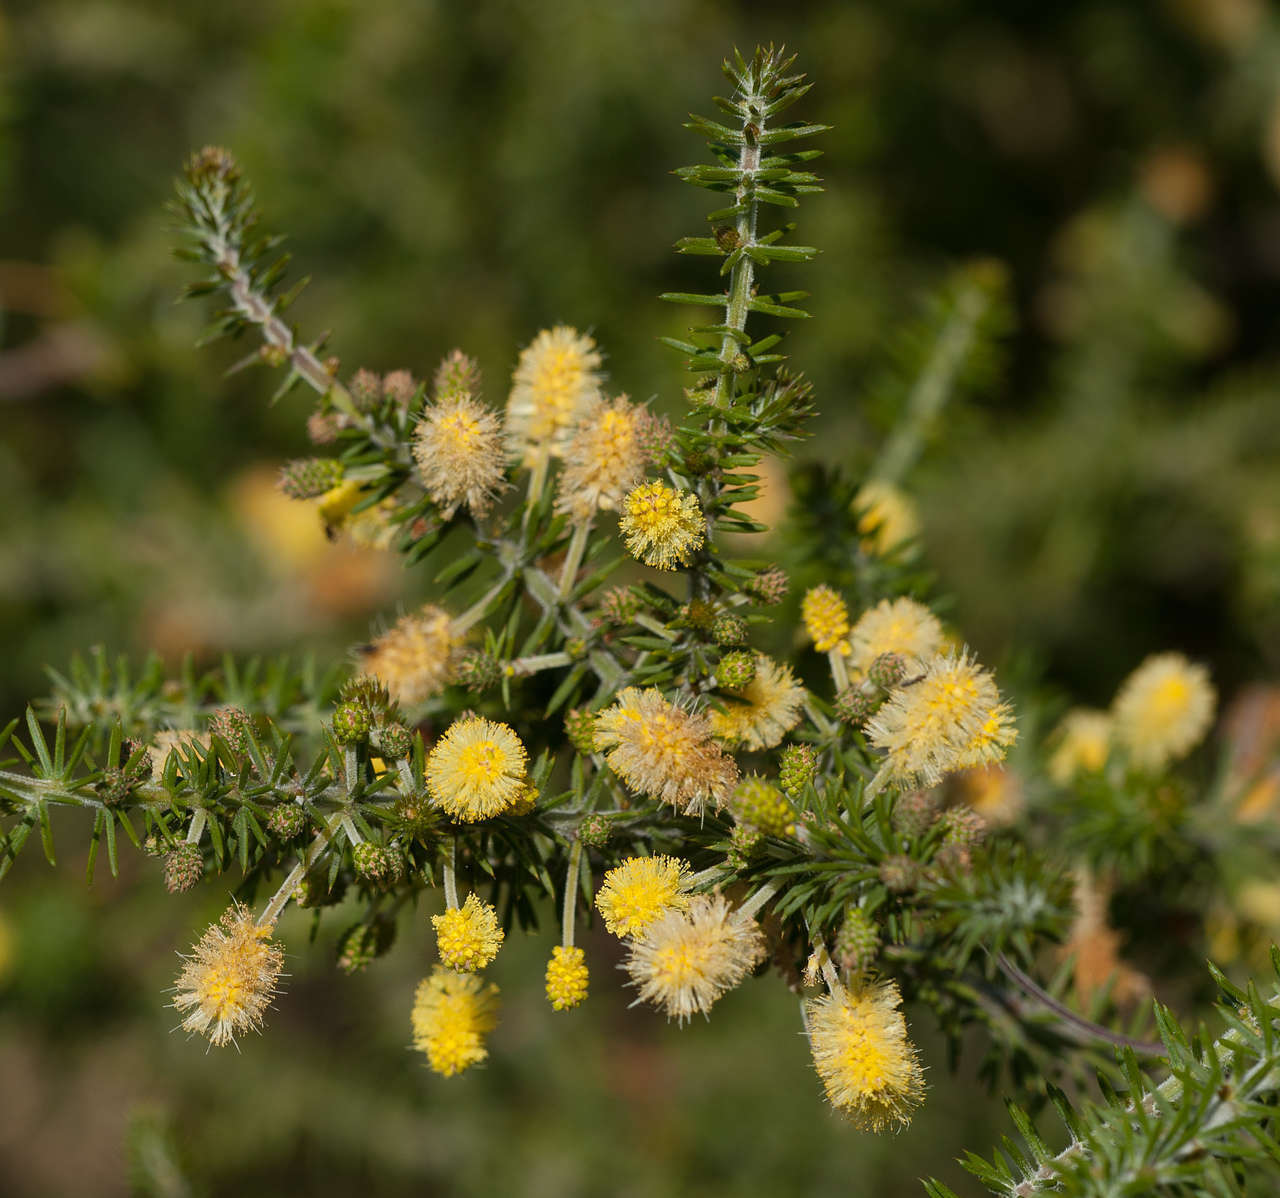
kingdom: Plantae
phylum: Tracheophyta
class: Magnoliopsida
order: Fabales
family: Fabaceae
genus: Acacia
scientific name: Acacia verticillata
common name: Prickly moses
